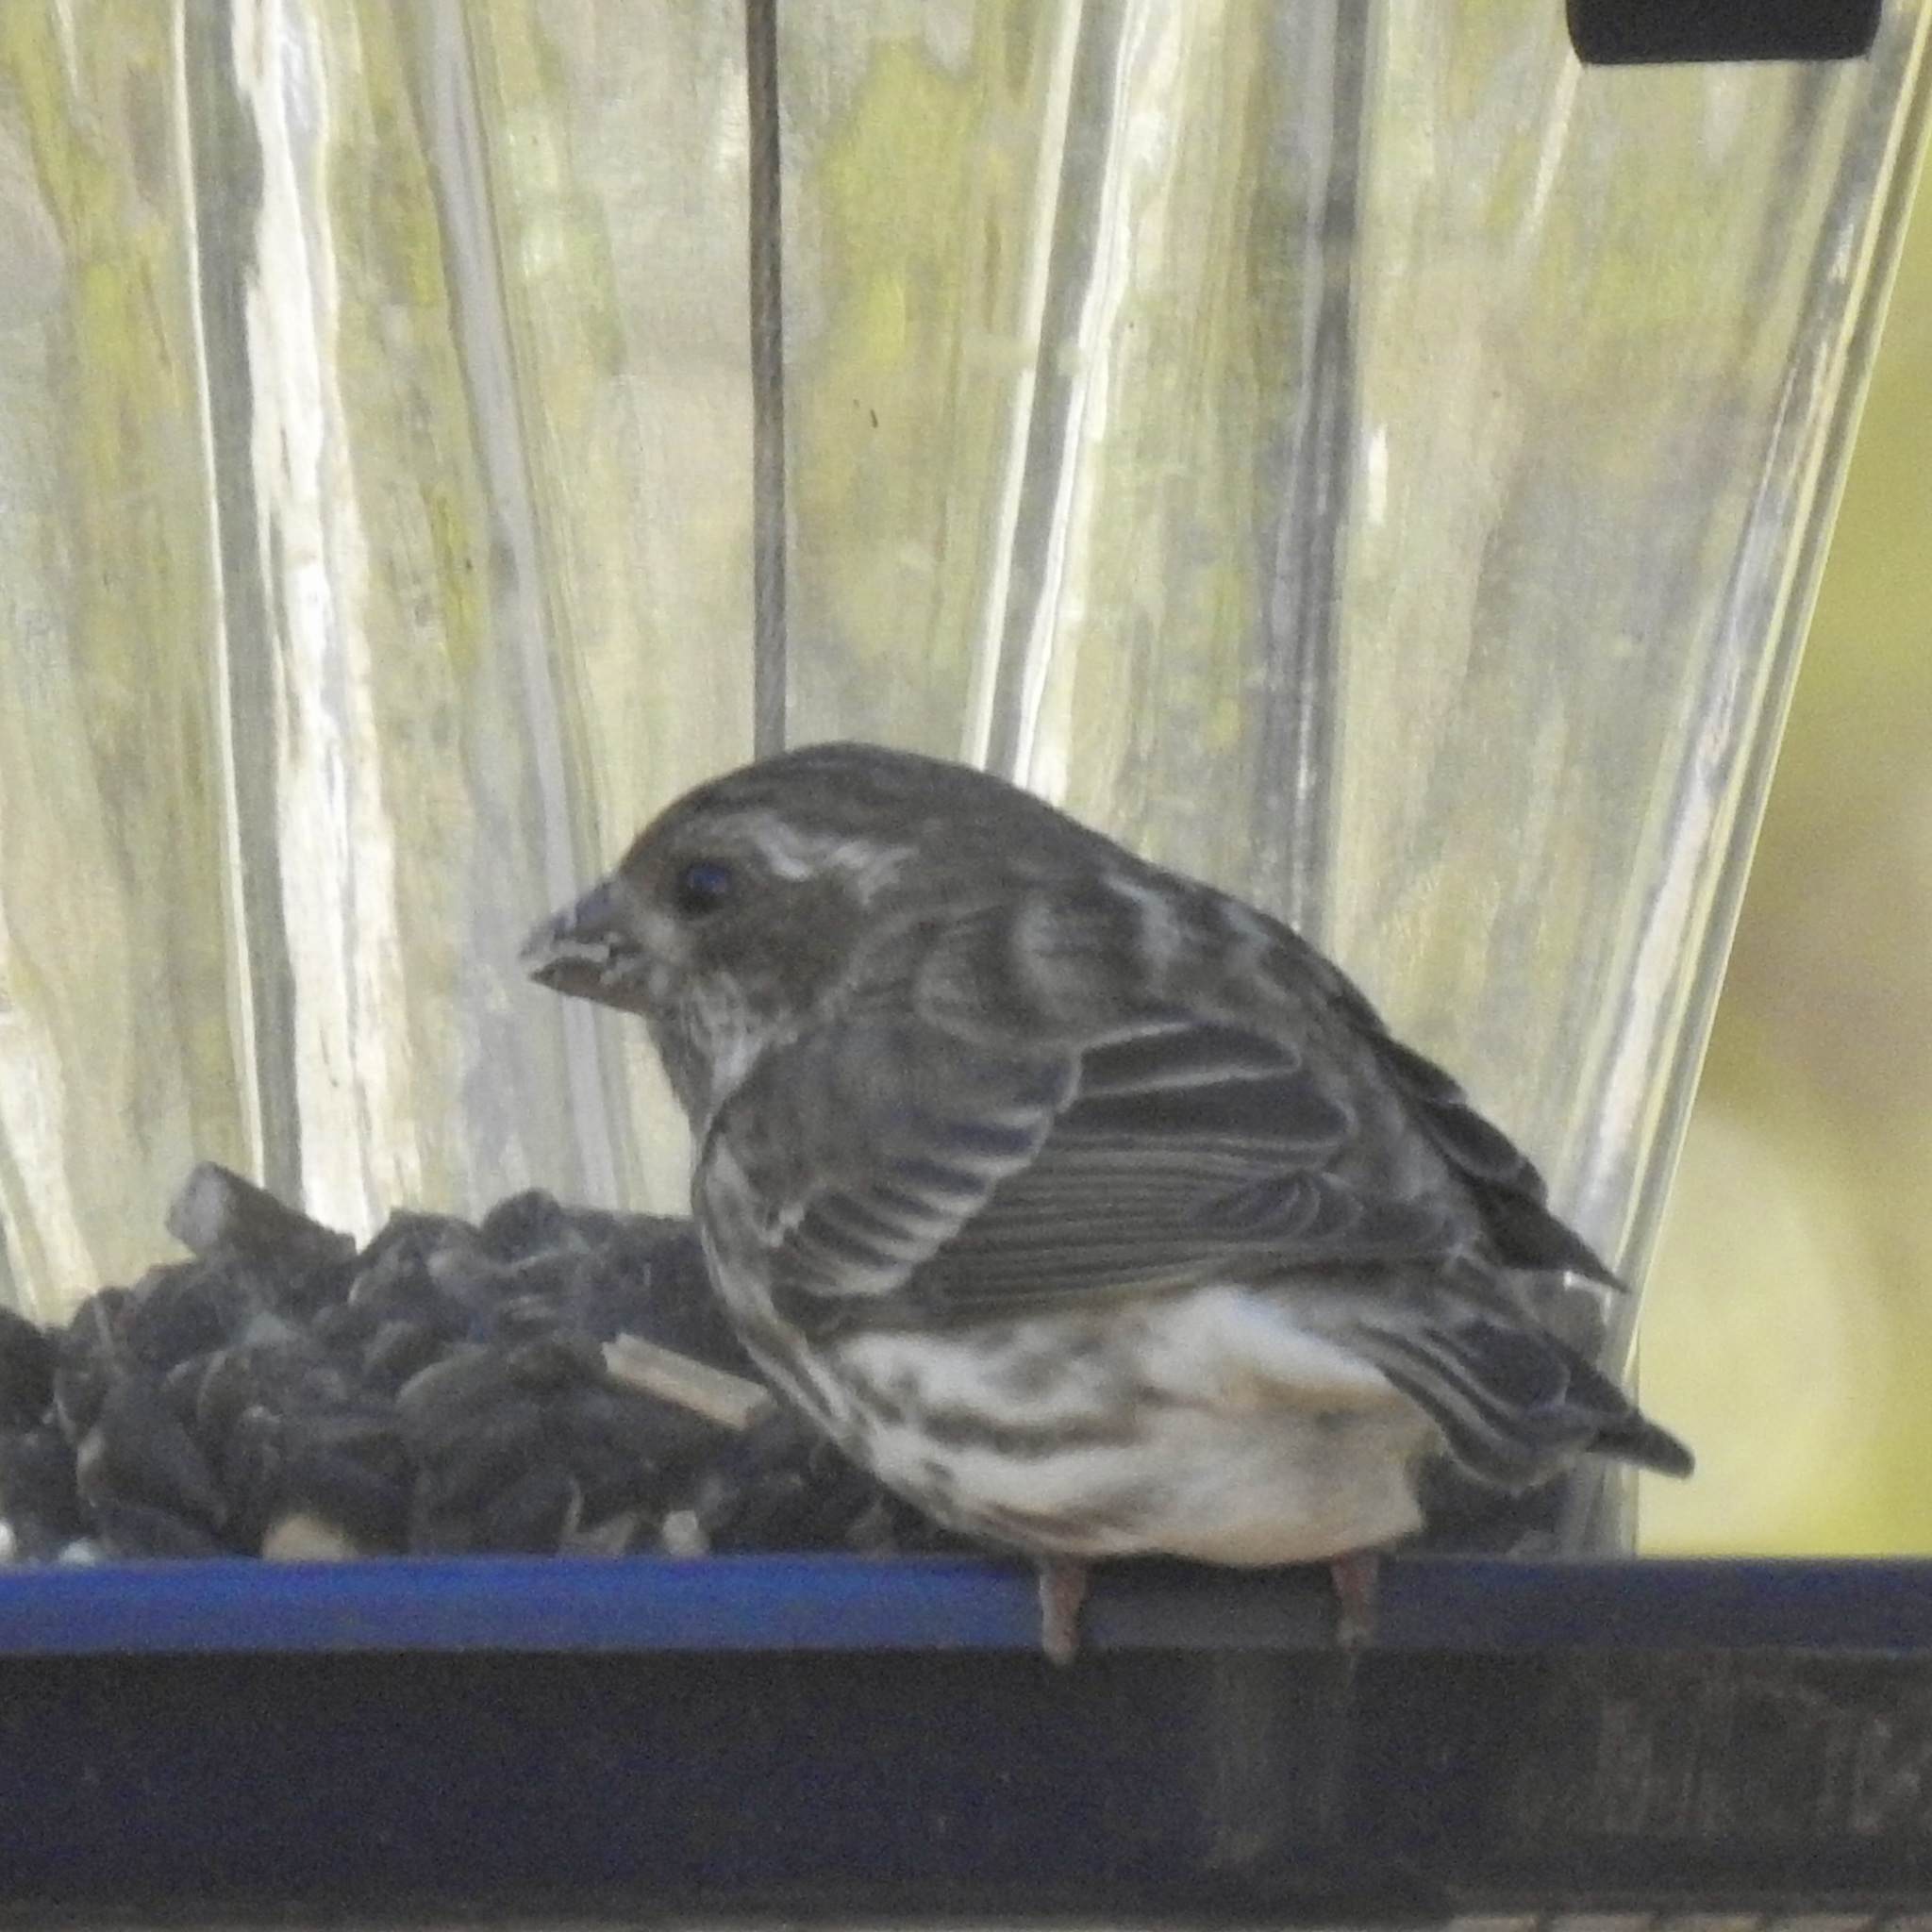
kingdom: Animalia
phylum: Chordata
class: Aves
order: Passeriformes
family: Fringillidae
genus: Haemorhous
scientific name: Haemorhous purpureus
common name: Purple finch
